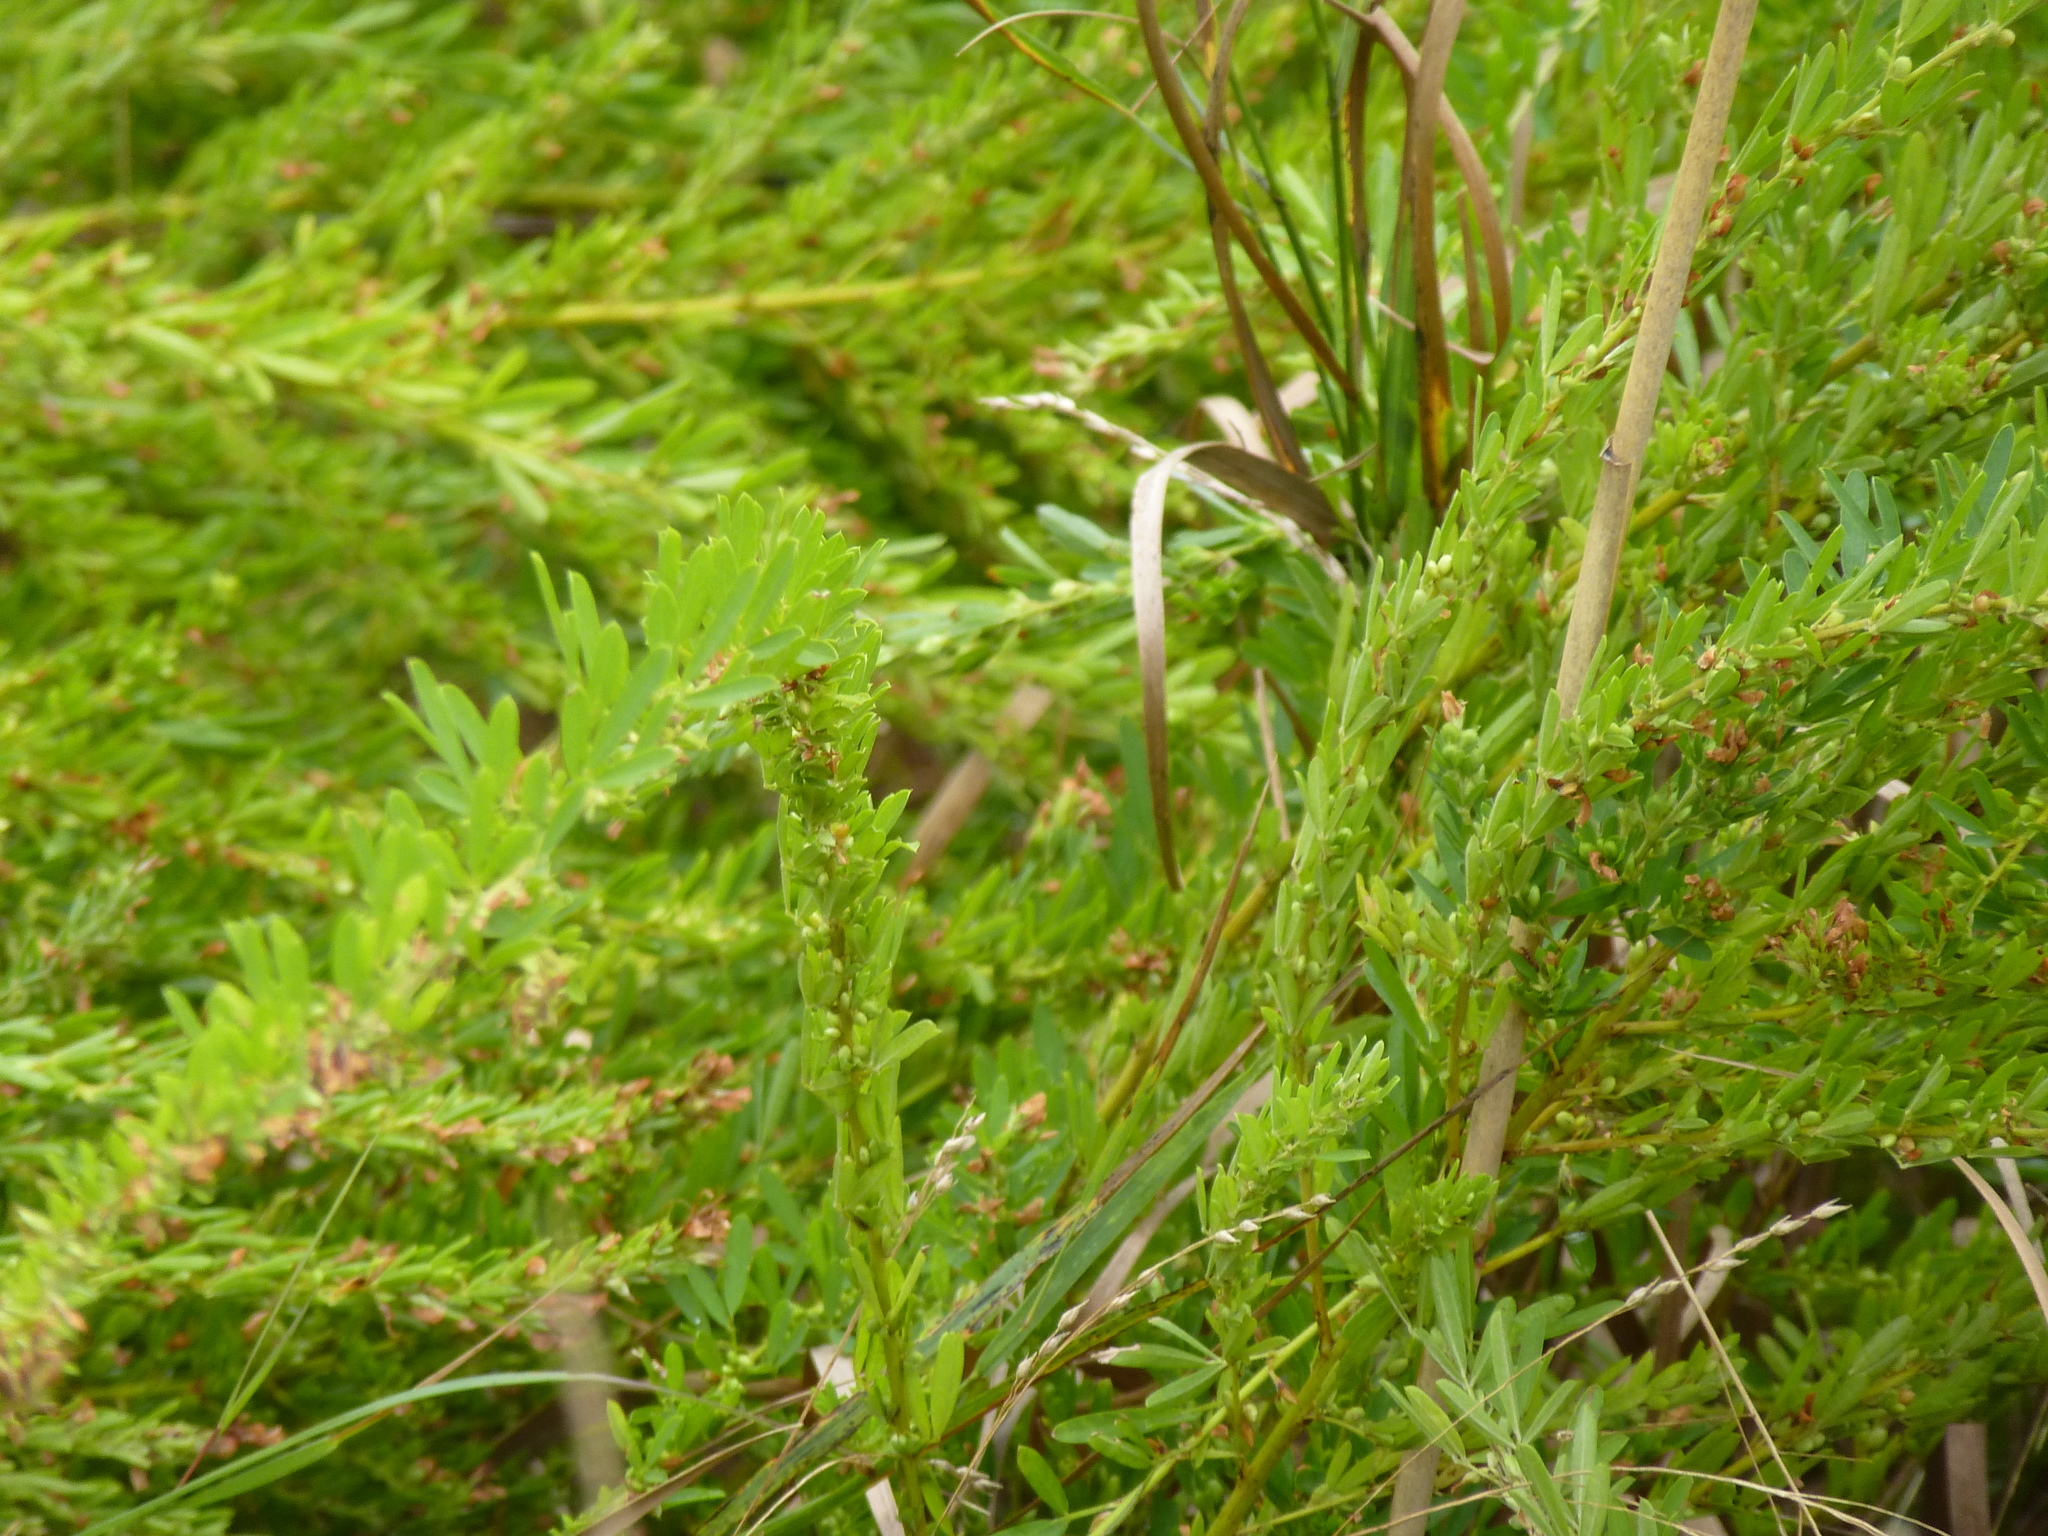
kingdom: Plantae
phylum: Tracheophyta
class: Magnoliopsida
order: Fabales
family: Fabaceae
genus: Lespedeza
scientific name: Lespedeza cuneata
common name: Chinese bush-clover
